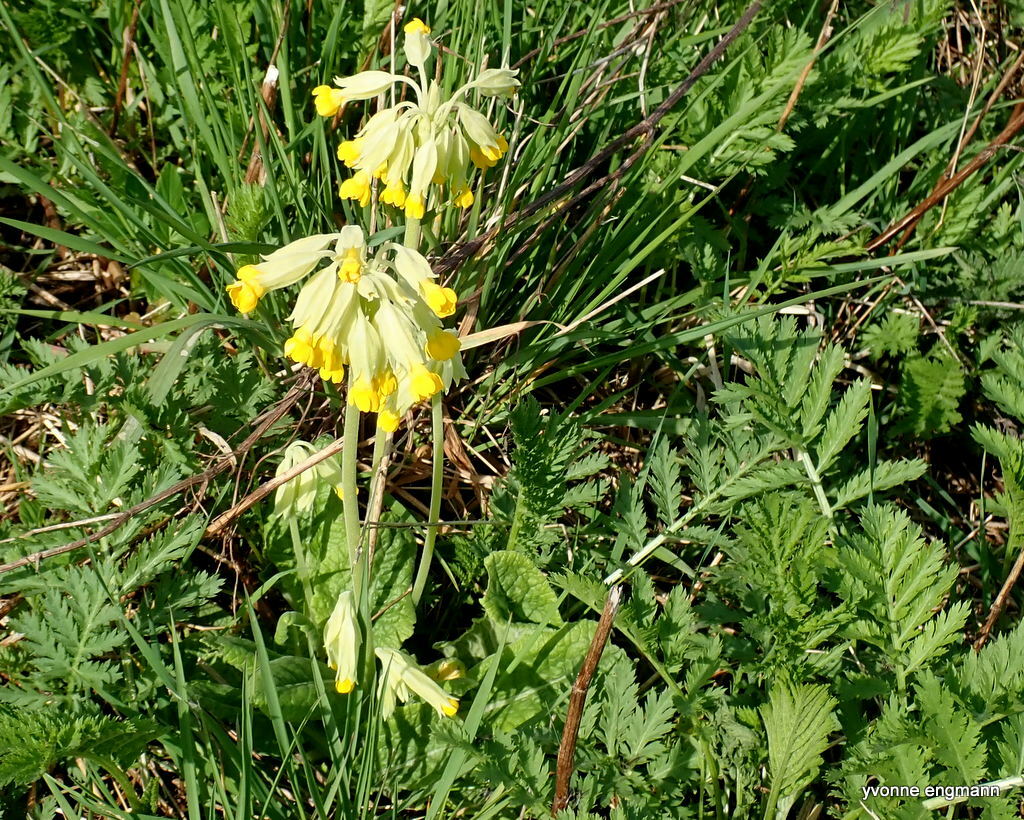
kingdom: Plantae
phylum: Tracheophyta
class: Magnoliopsida
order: Ericales
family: Primulaceae
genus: Primula
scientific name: Primula veris
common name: Cowslip
